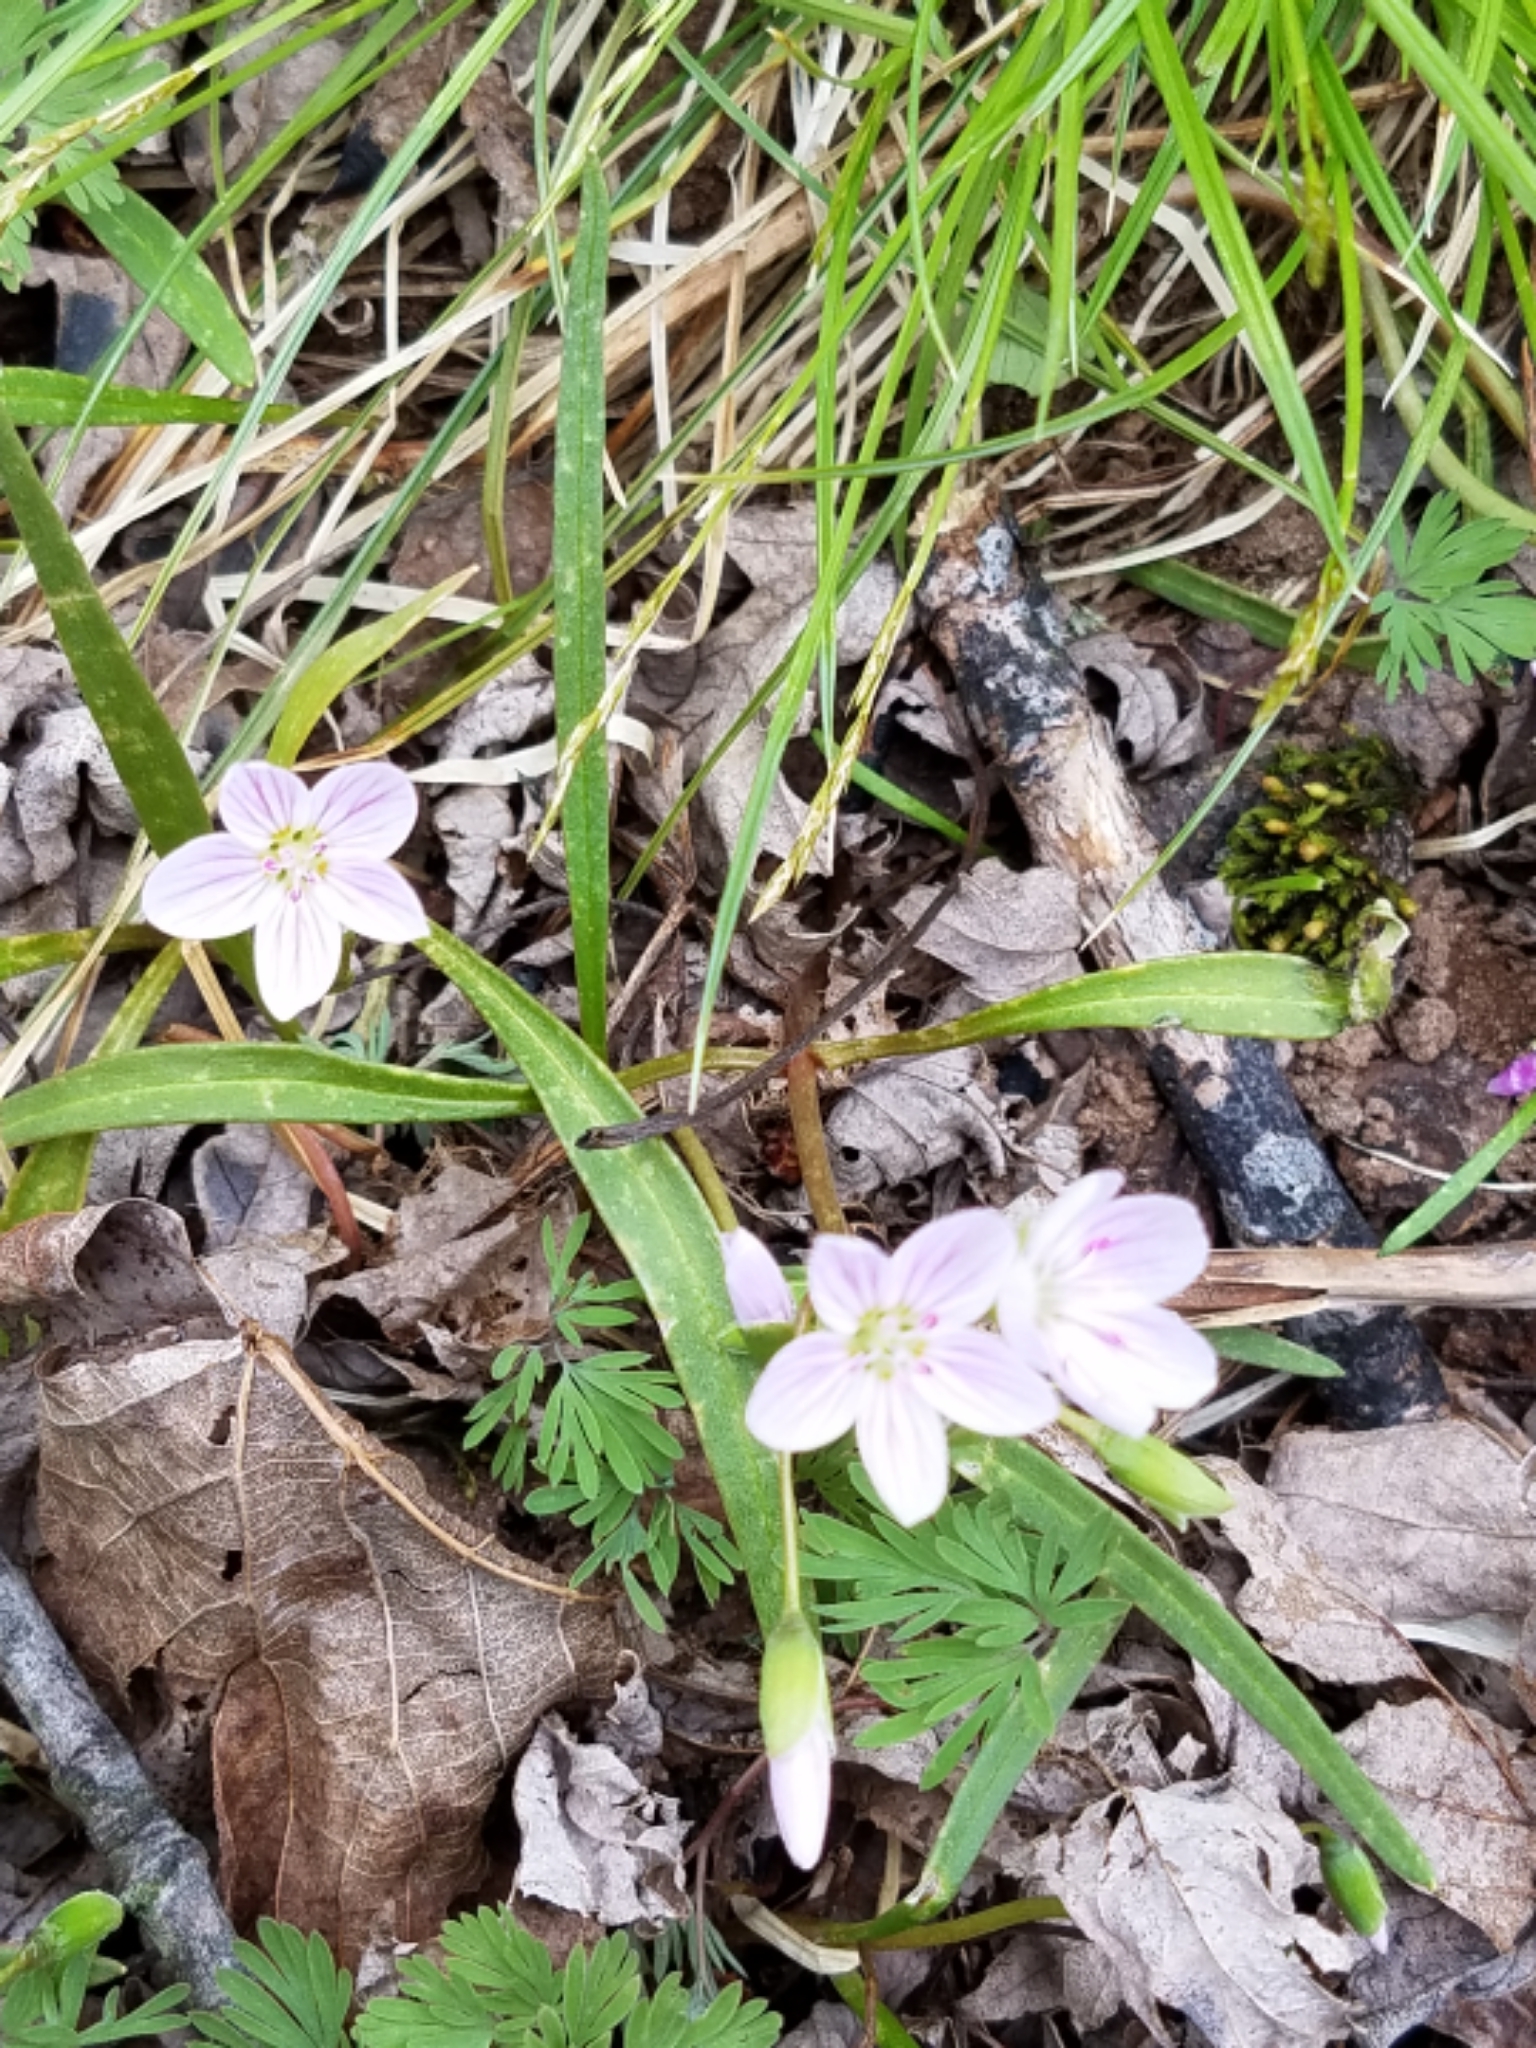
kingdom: Plantae
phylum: Tracheophyta
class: Magnoliopsida
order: Caryophyllales
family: Montiaceae
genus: Claytonia
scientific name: Claytonia virginica
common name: Virginia springbeauty
